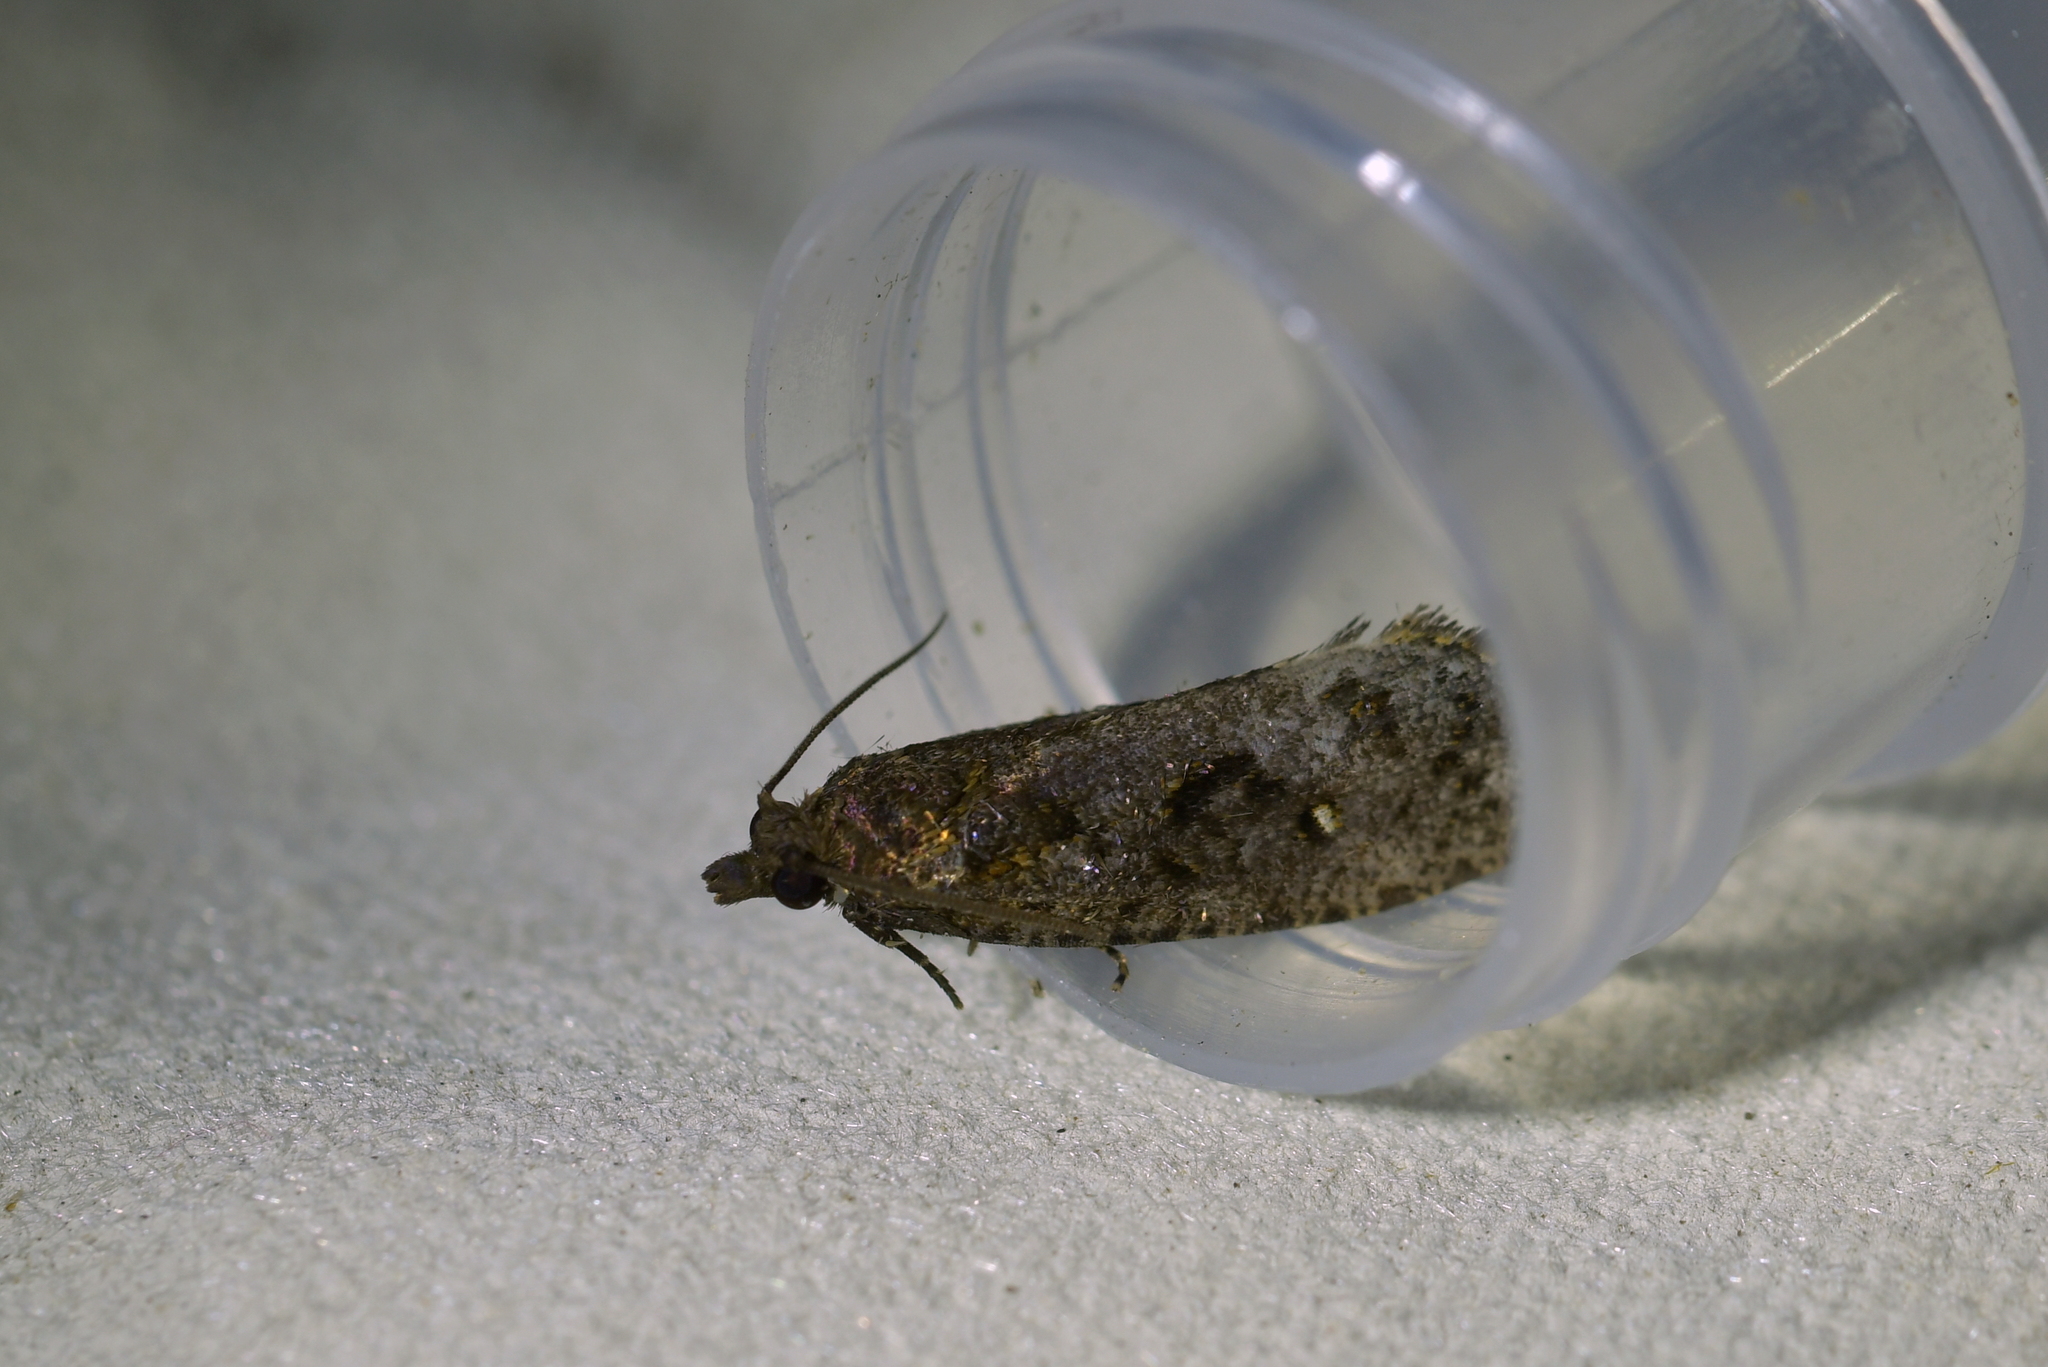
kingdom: Animalia
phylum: Arthropoda
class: Insecta
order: Lepidoptera
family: Tortricidae
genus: Cryptaspasma
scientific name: Cryptaspasma querula
